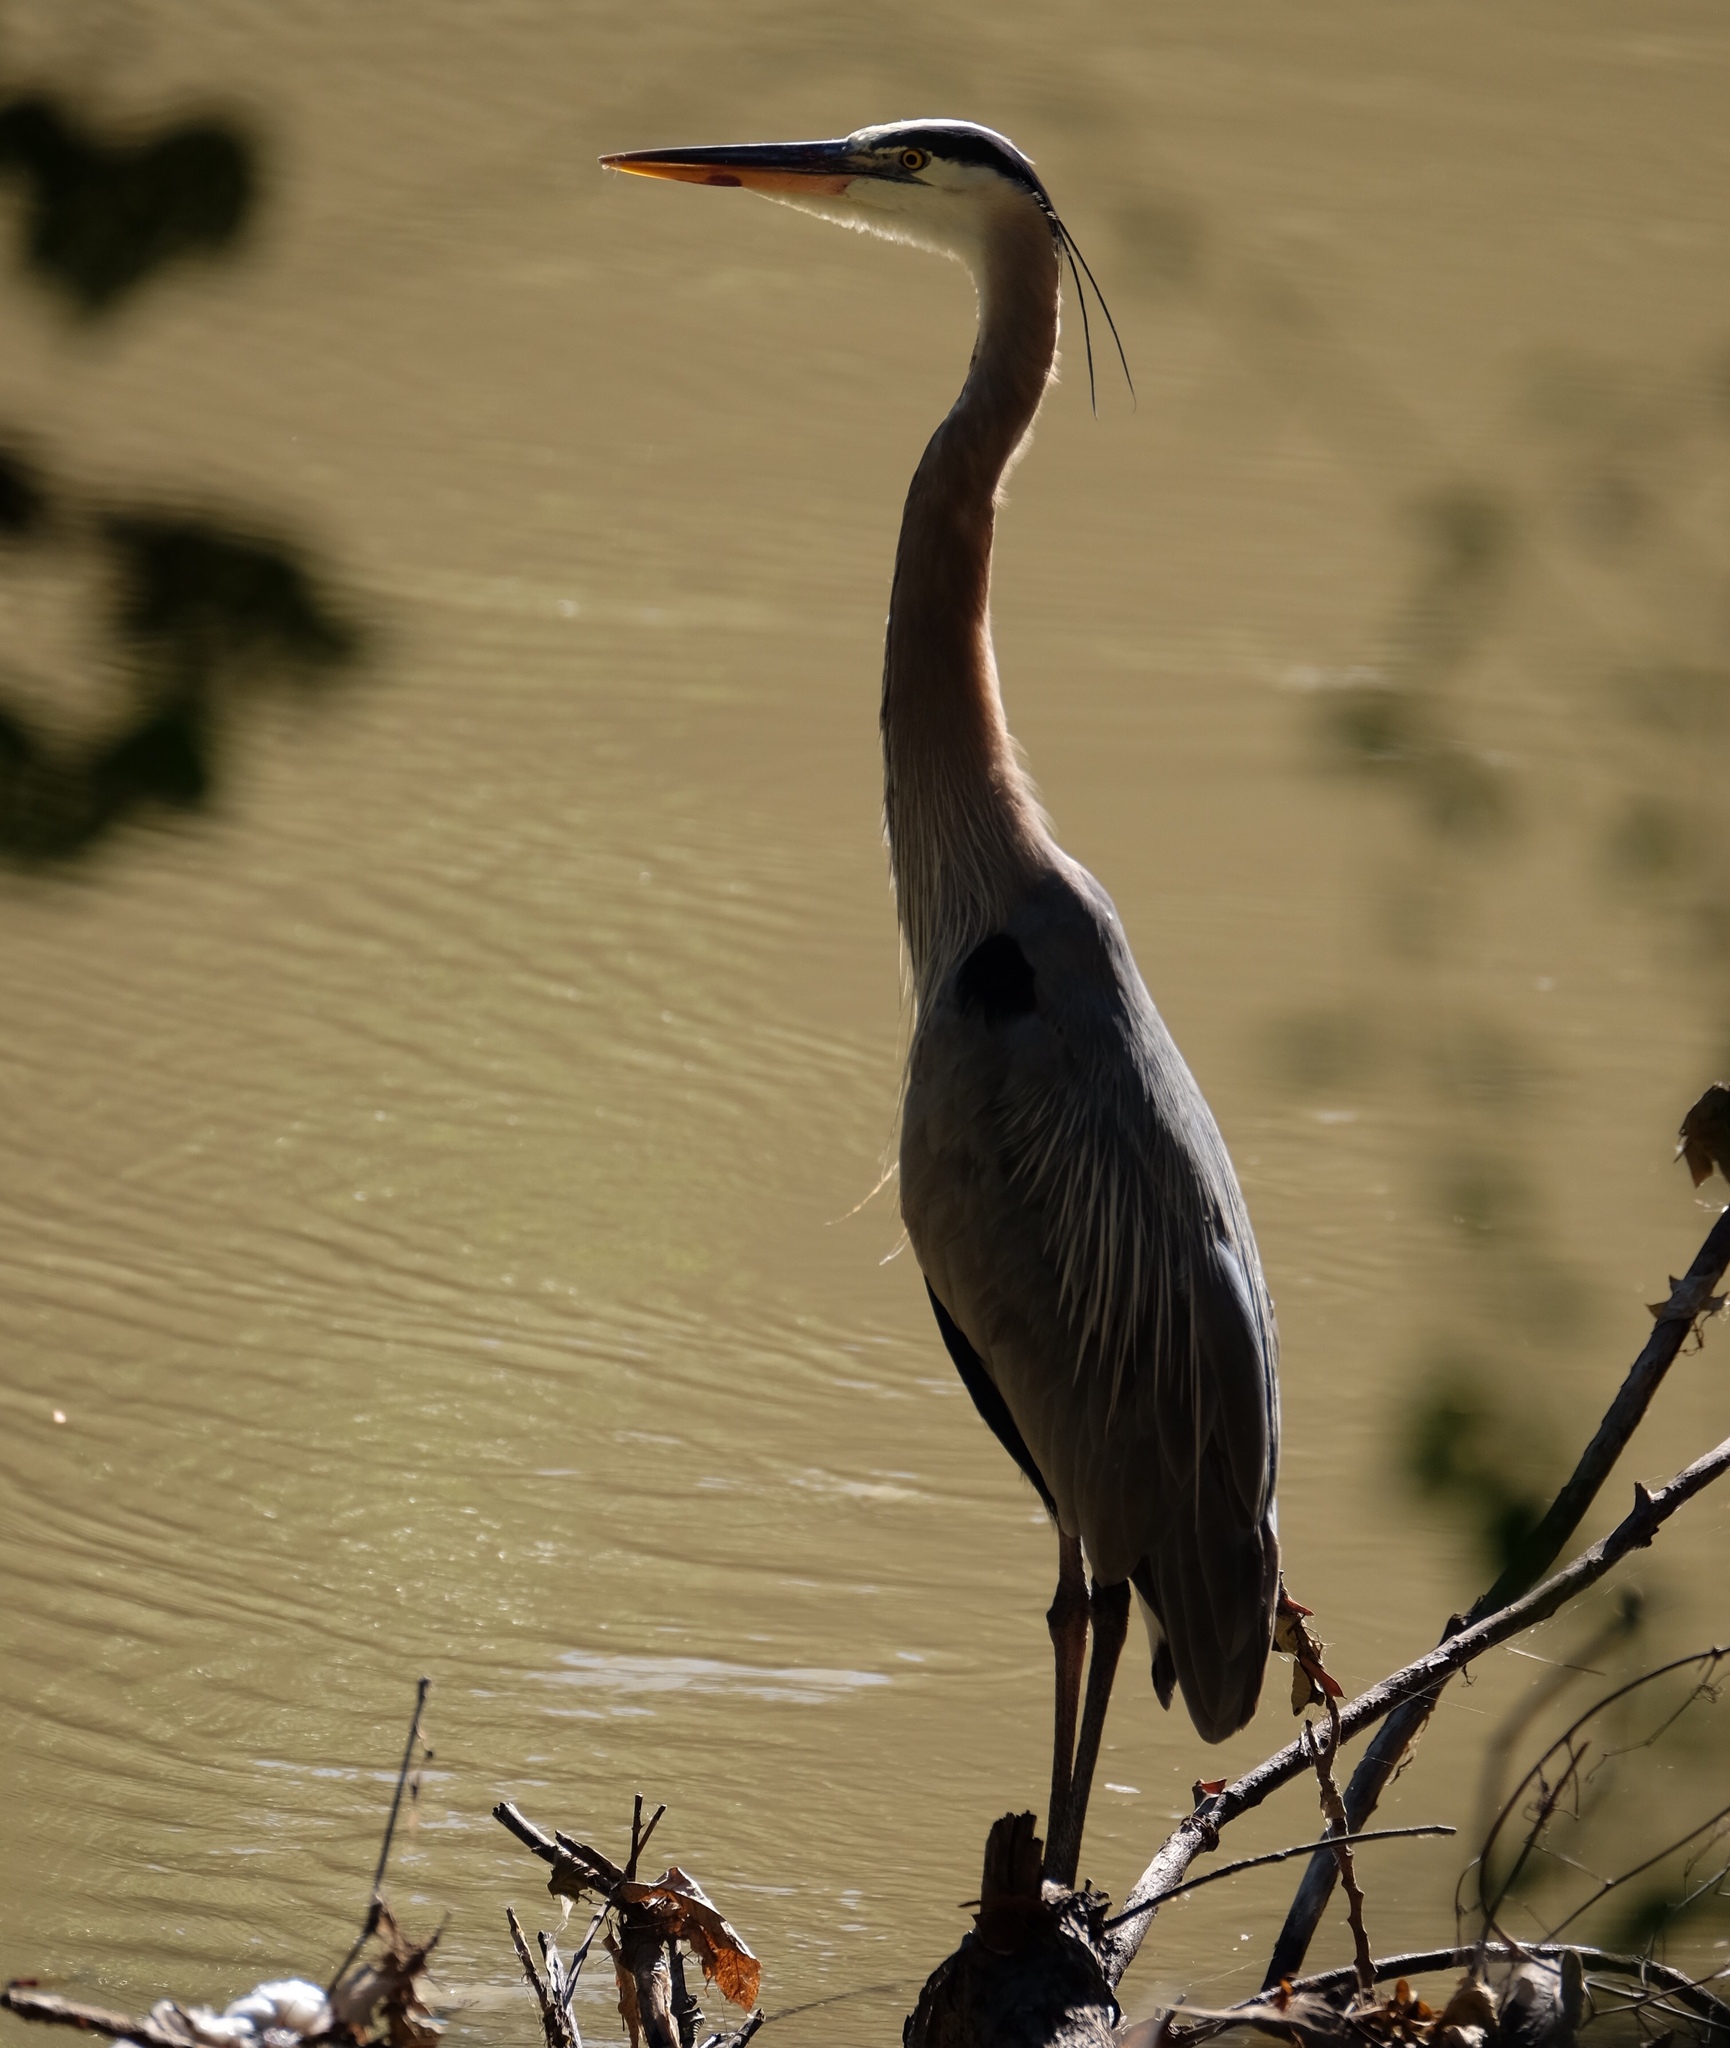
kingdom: Animalia
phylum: Chordata
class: Aves
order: Pelecaniformes
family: Ardeidae
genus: Ardea
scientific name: Ardea herodias
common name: Great blue heron
